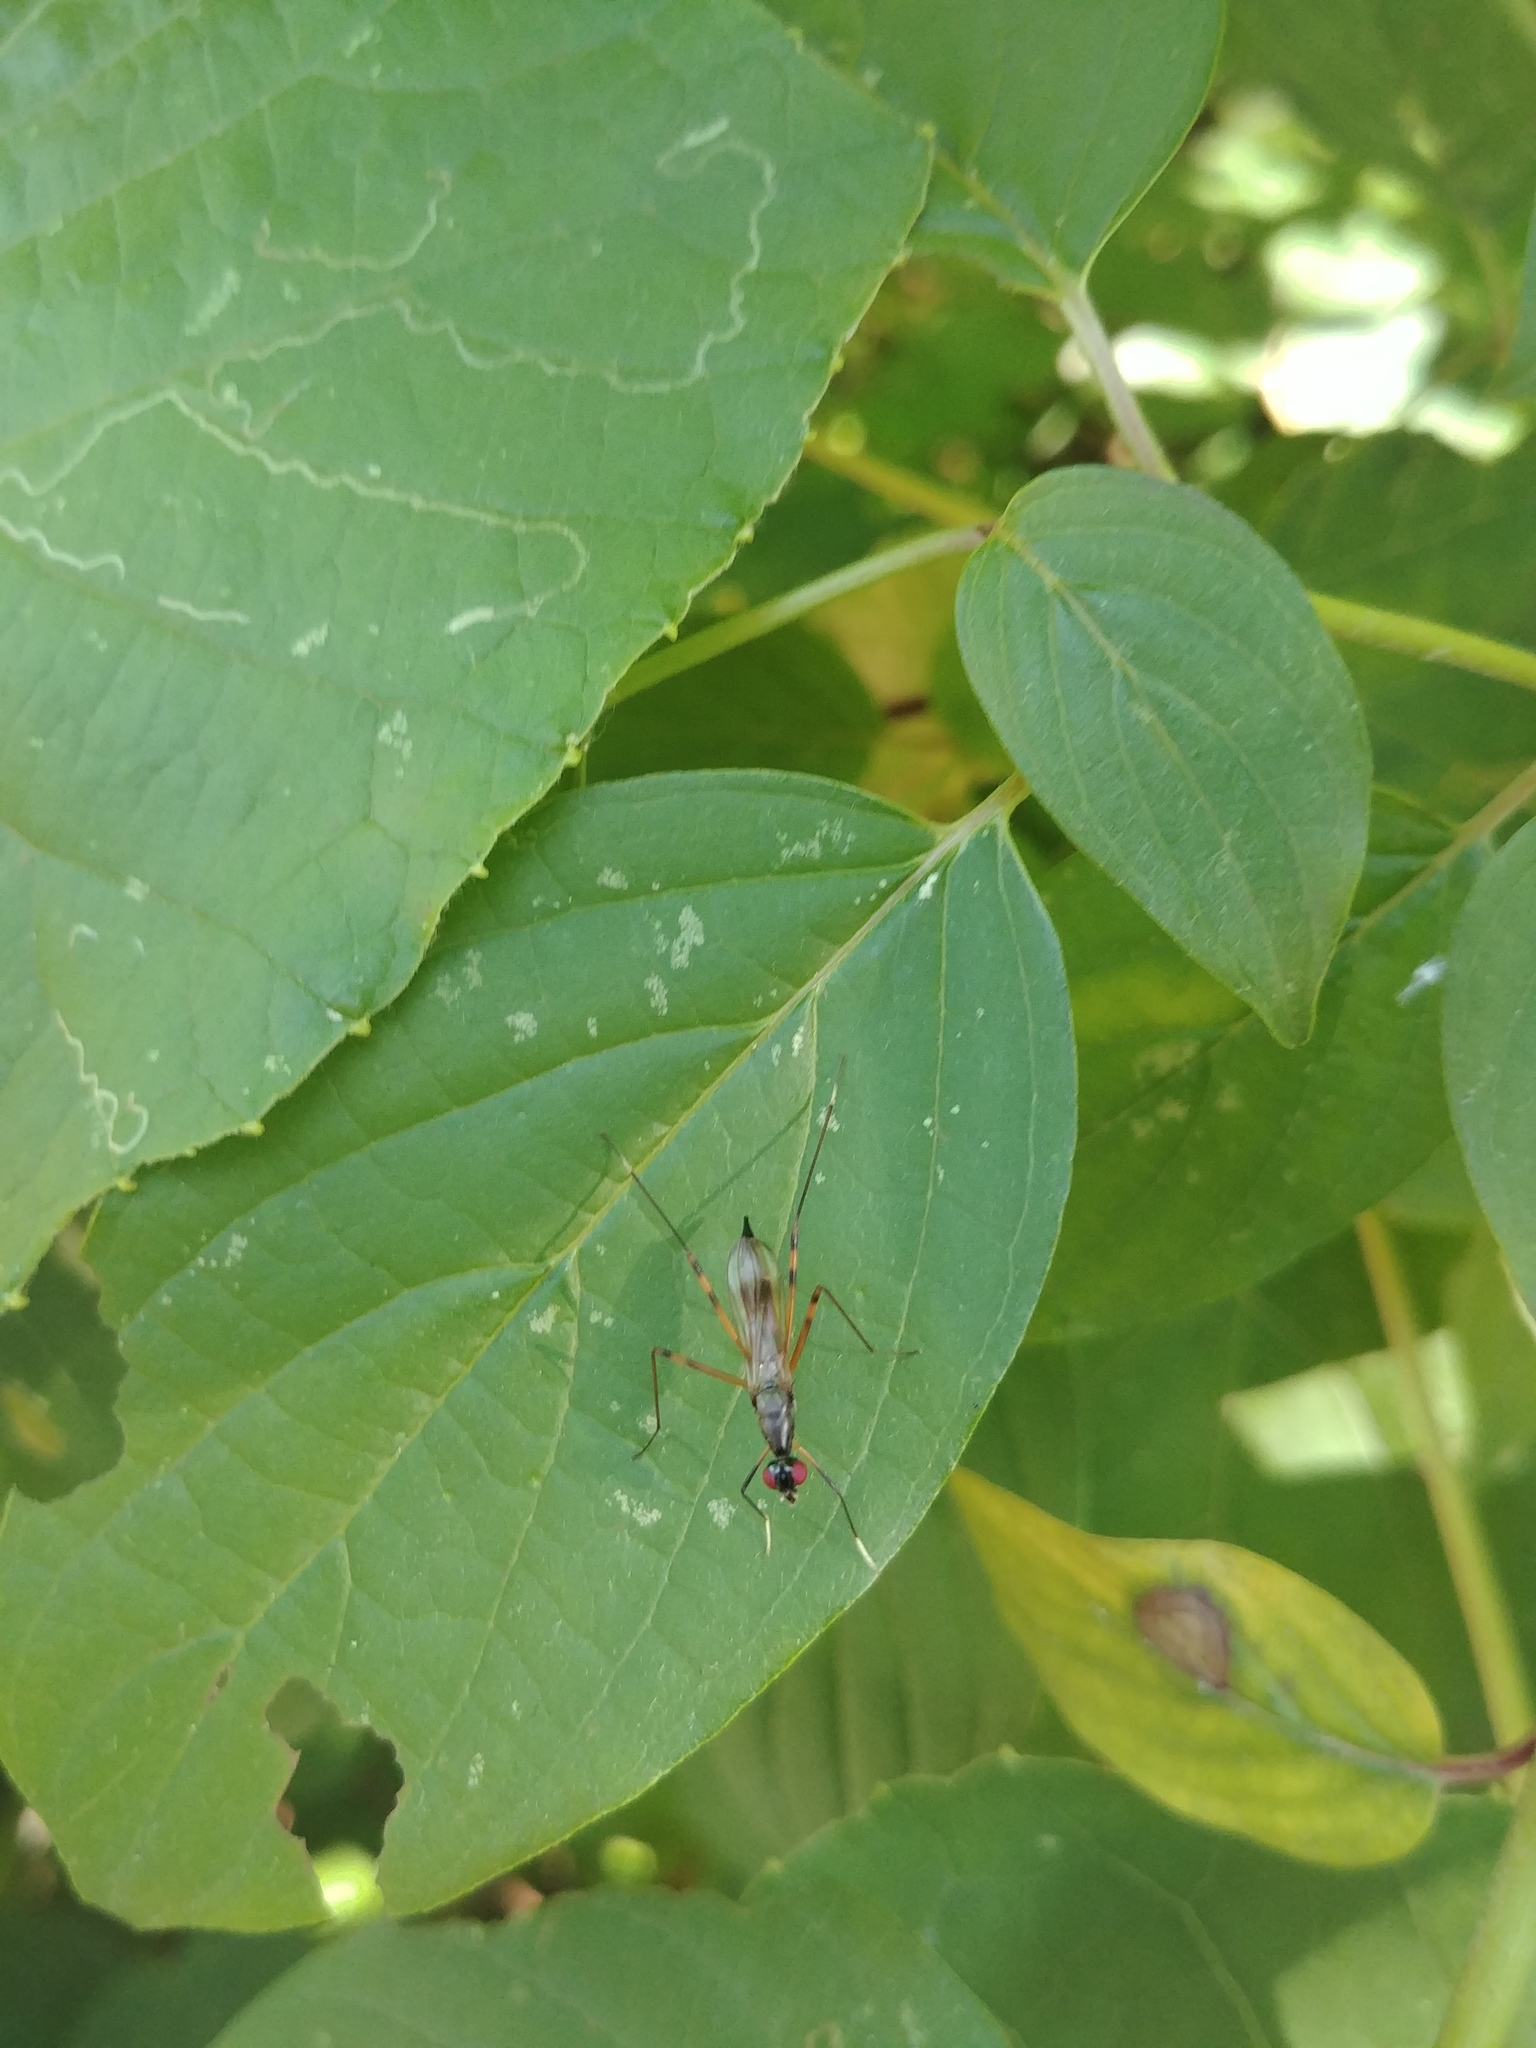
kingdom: Animalia
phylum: Arthropoda
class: Insecta
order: Diptera
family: Micropezidae
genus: Rainieria
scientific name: Rainieria antennaepes
